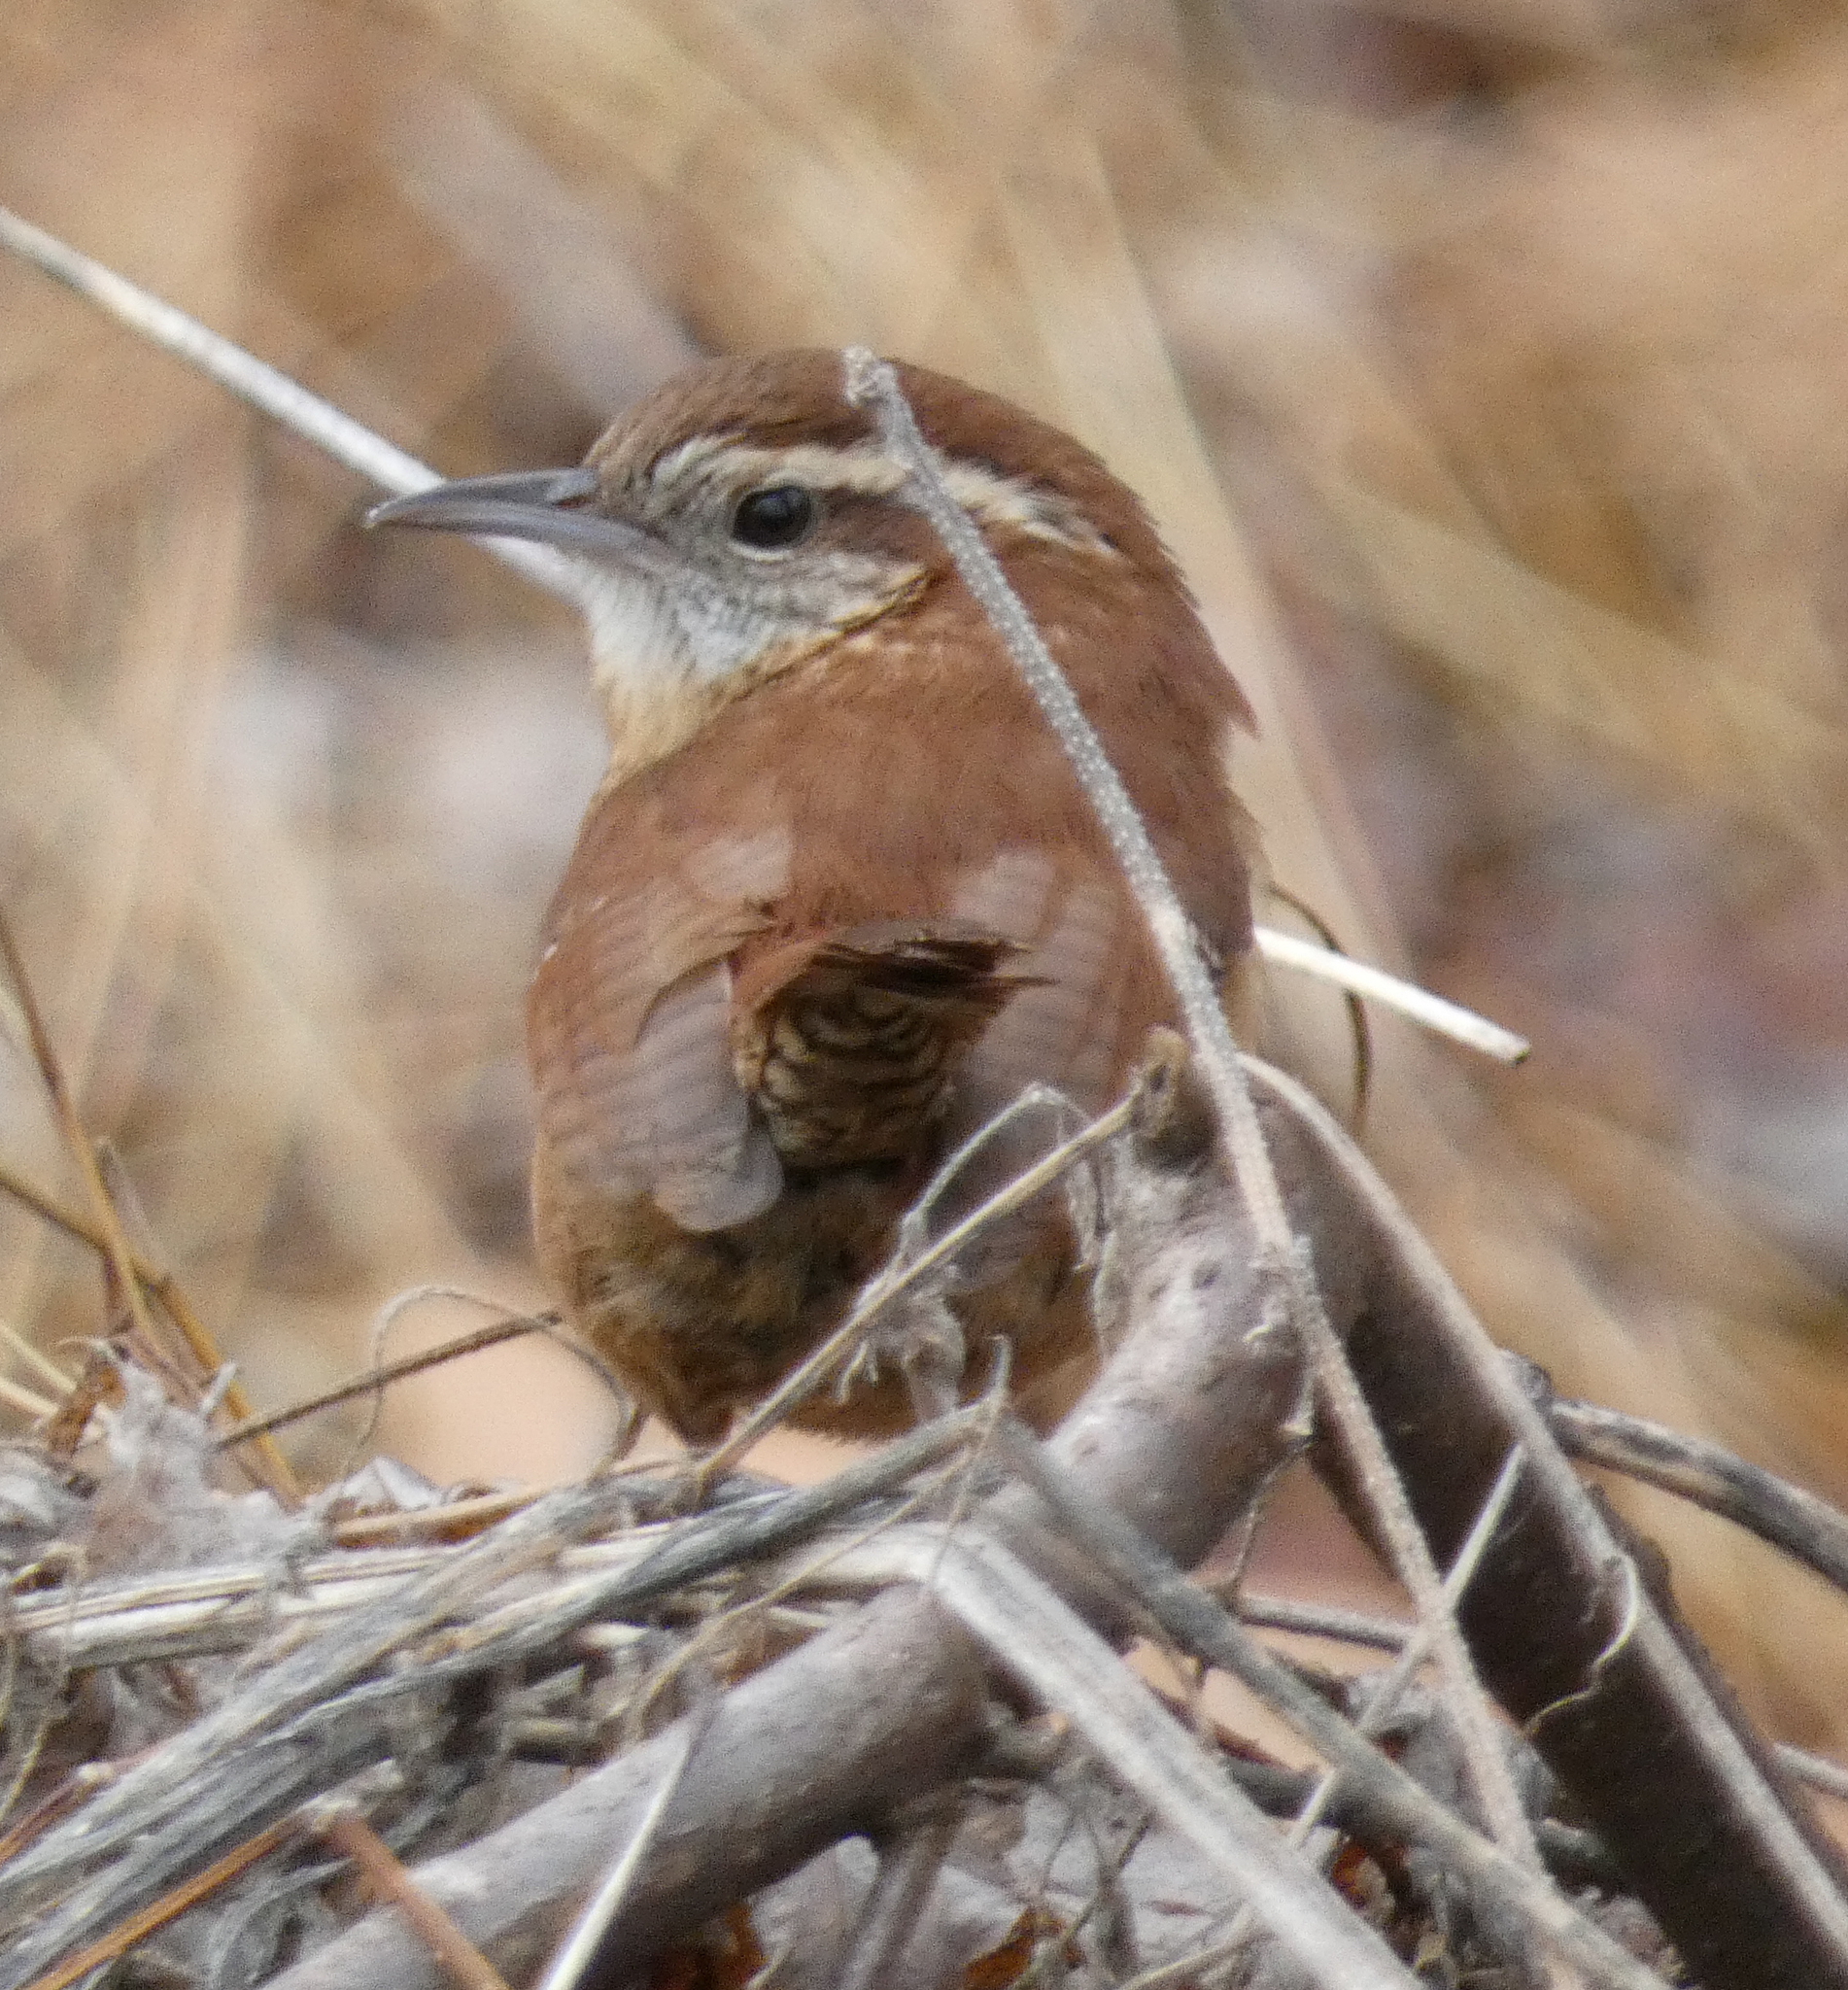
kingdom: Animalia
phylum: Chordata
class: Aves
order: Passeriformes
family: Troglodytidae
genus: Thryothorus
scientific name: Thryothorus ludovicianus
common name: Carolina wren
